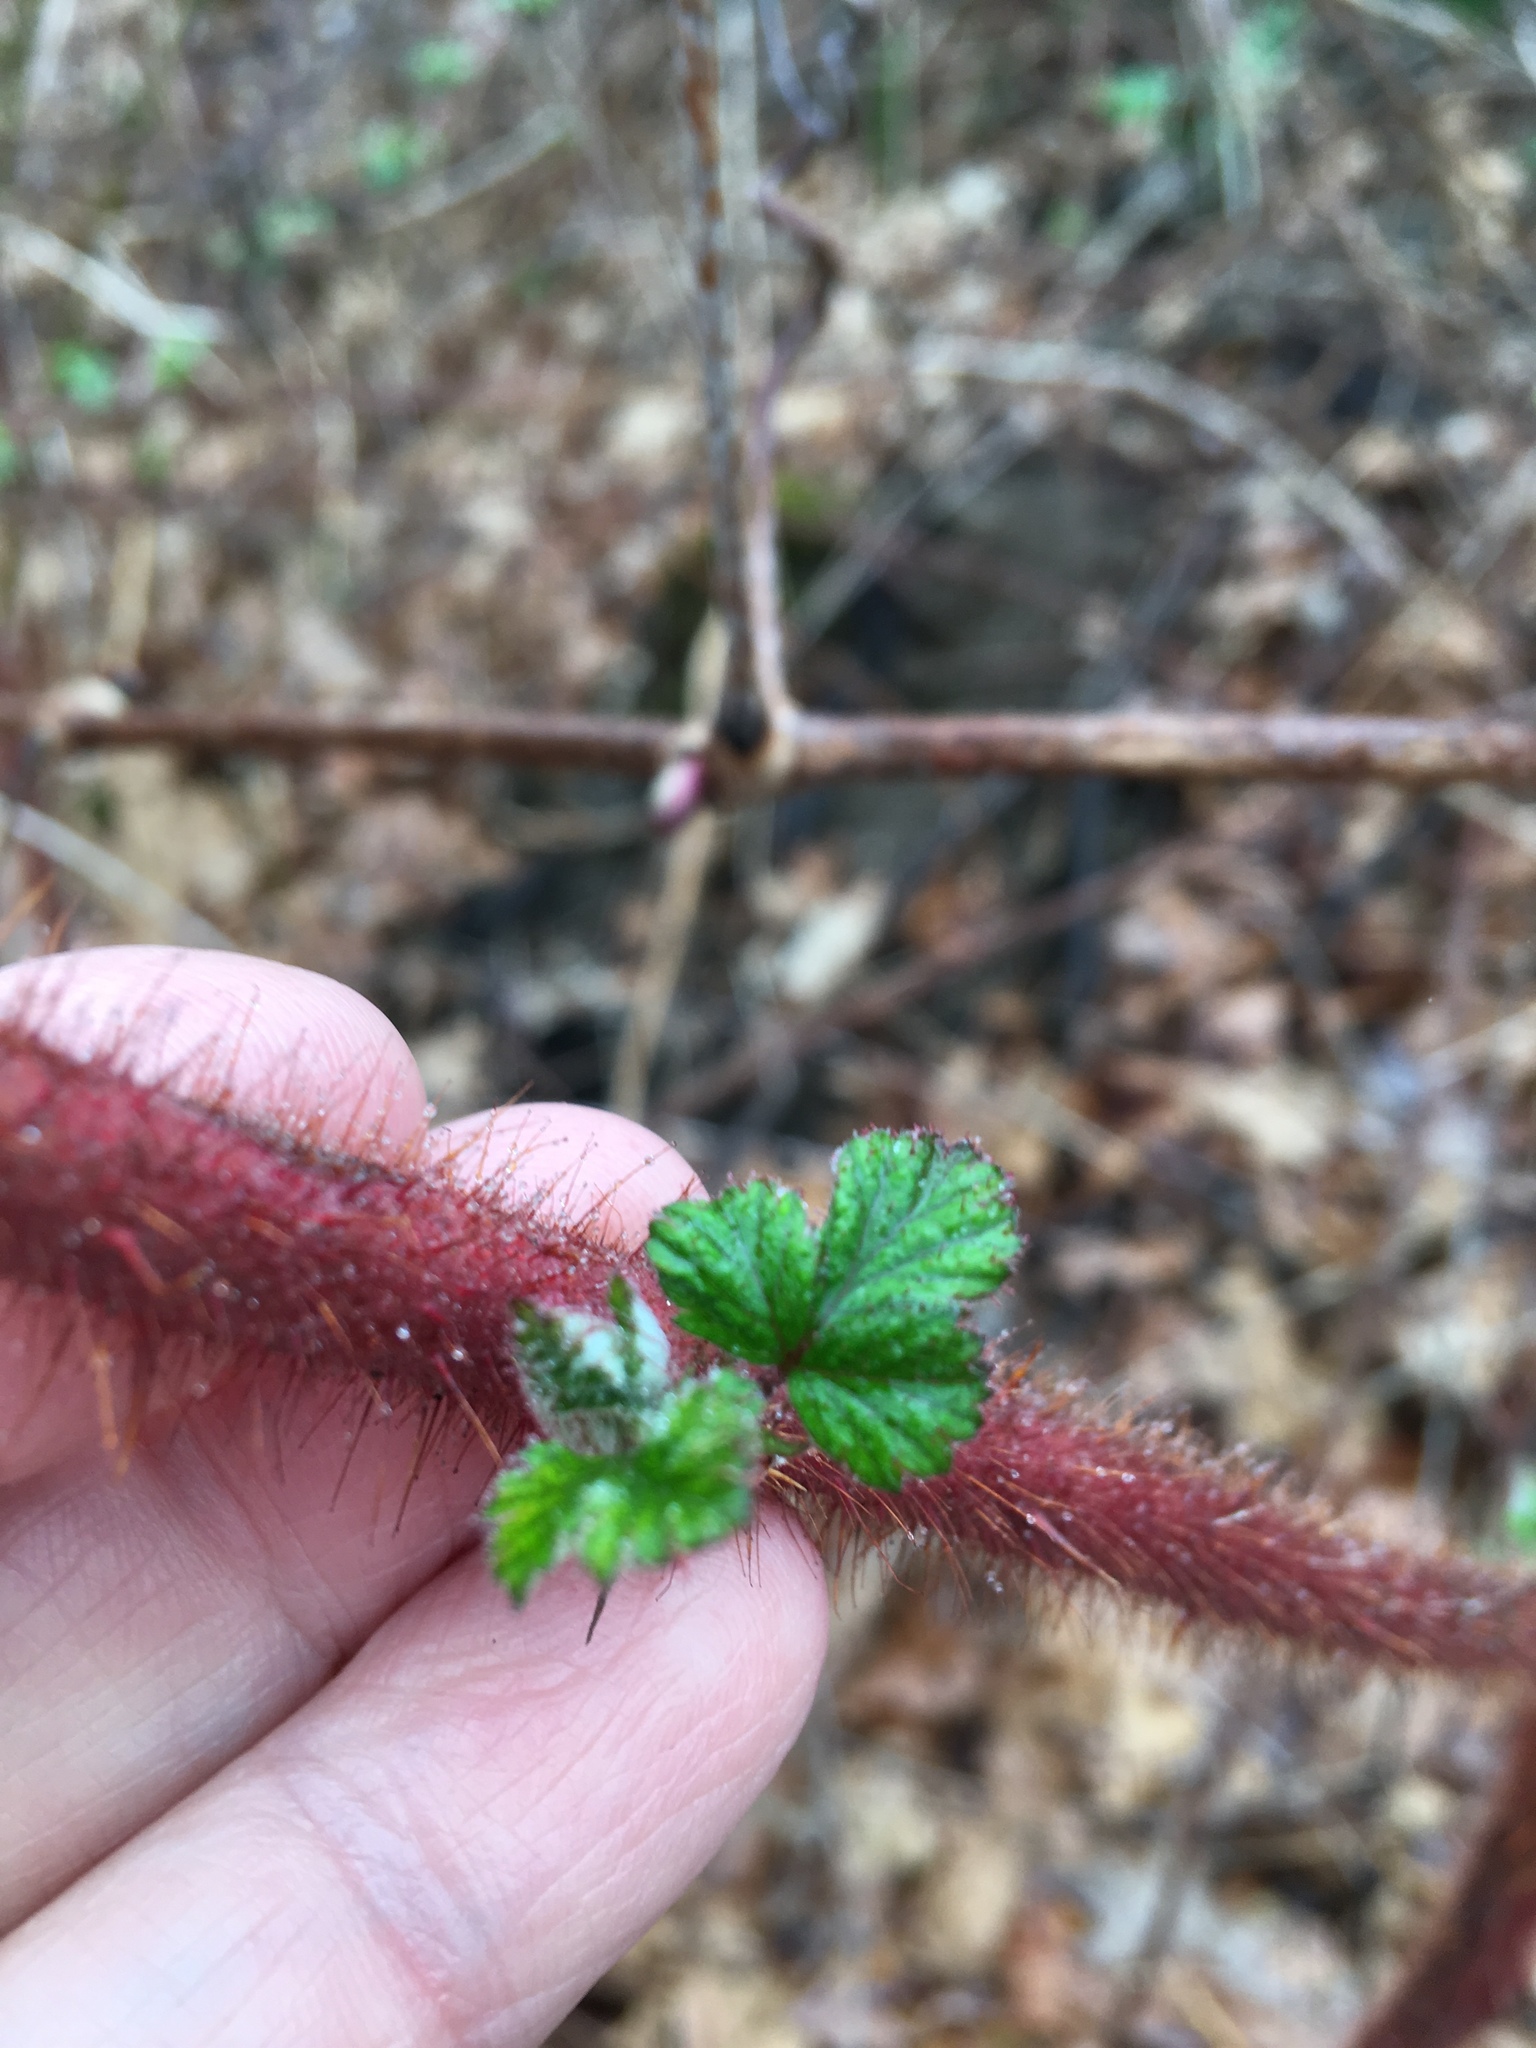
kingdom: Plantae
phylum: Tracheophyta
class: Magnoliopsida
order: Rosales
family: Rosaceae
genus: Rubus
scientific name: Rubus phoenicolasius
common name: Japanese wineberry
